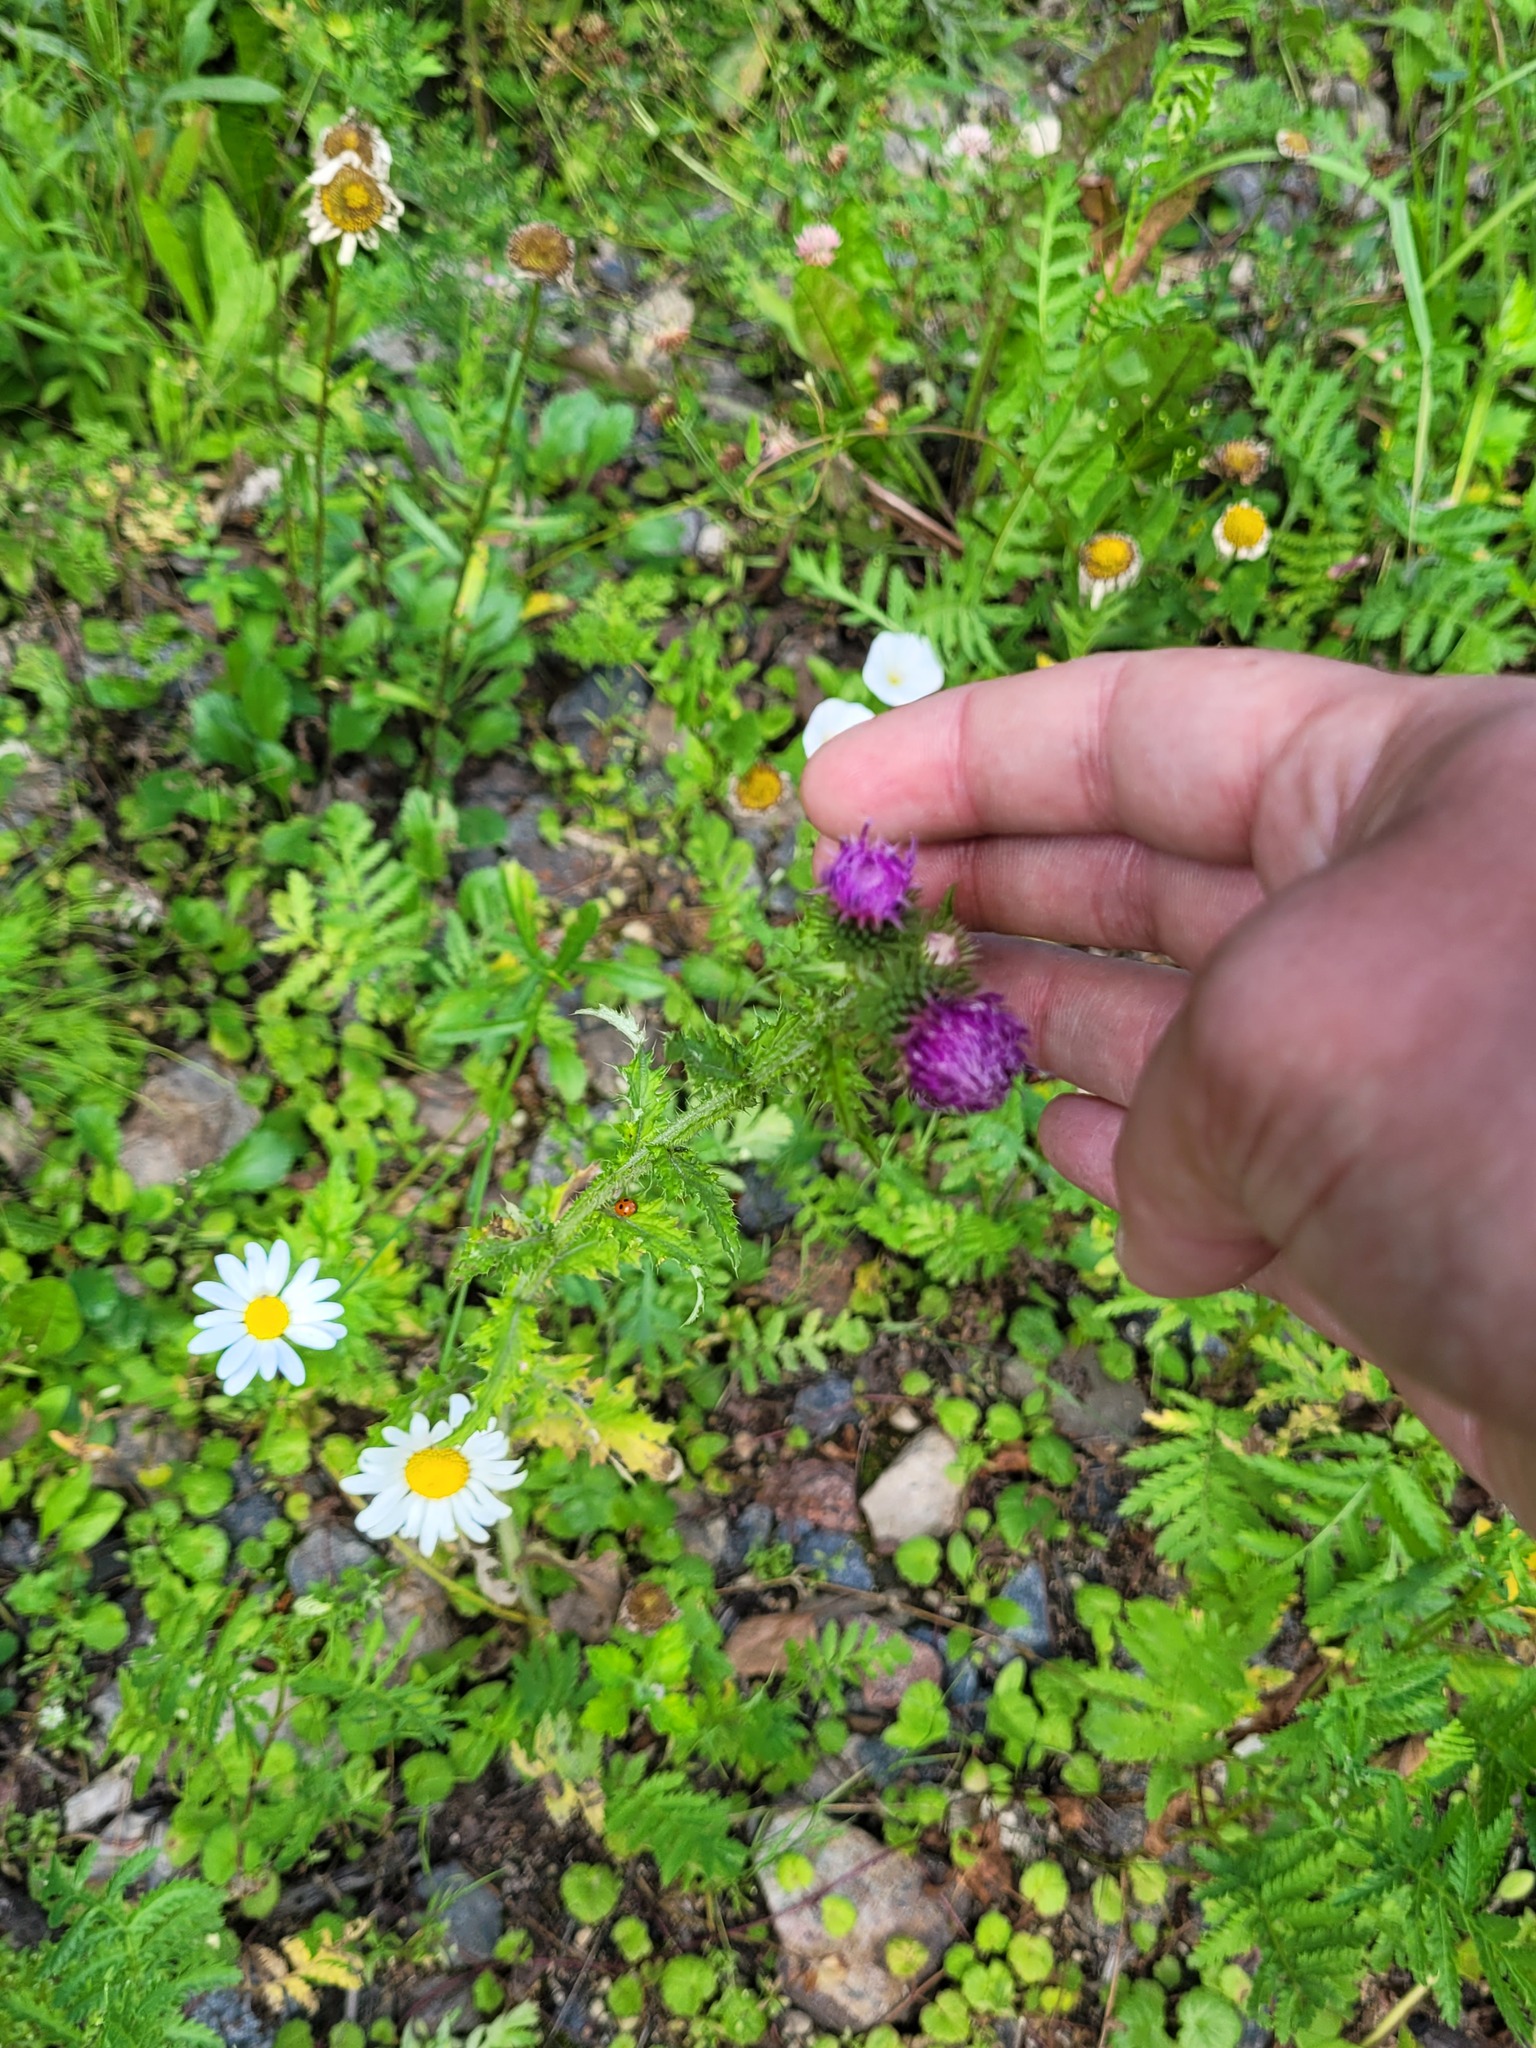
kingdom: Plantae
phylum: Tracheophyta
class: Magnoliopsida
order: Asterales
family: Asteraceae
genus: Carduus
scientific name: Carduus crispus
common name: Welted thistle
